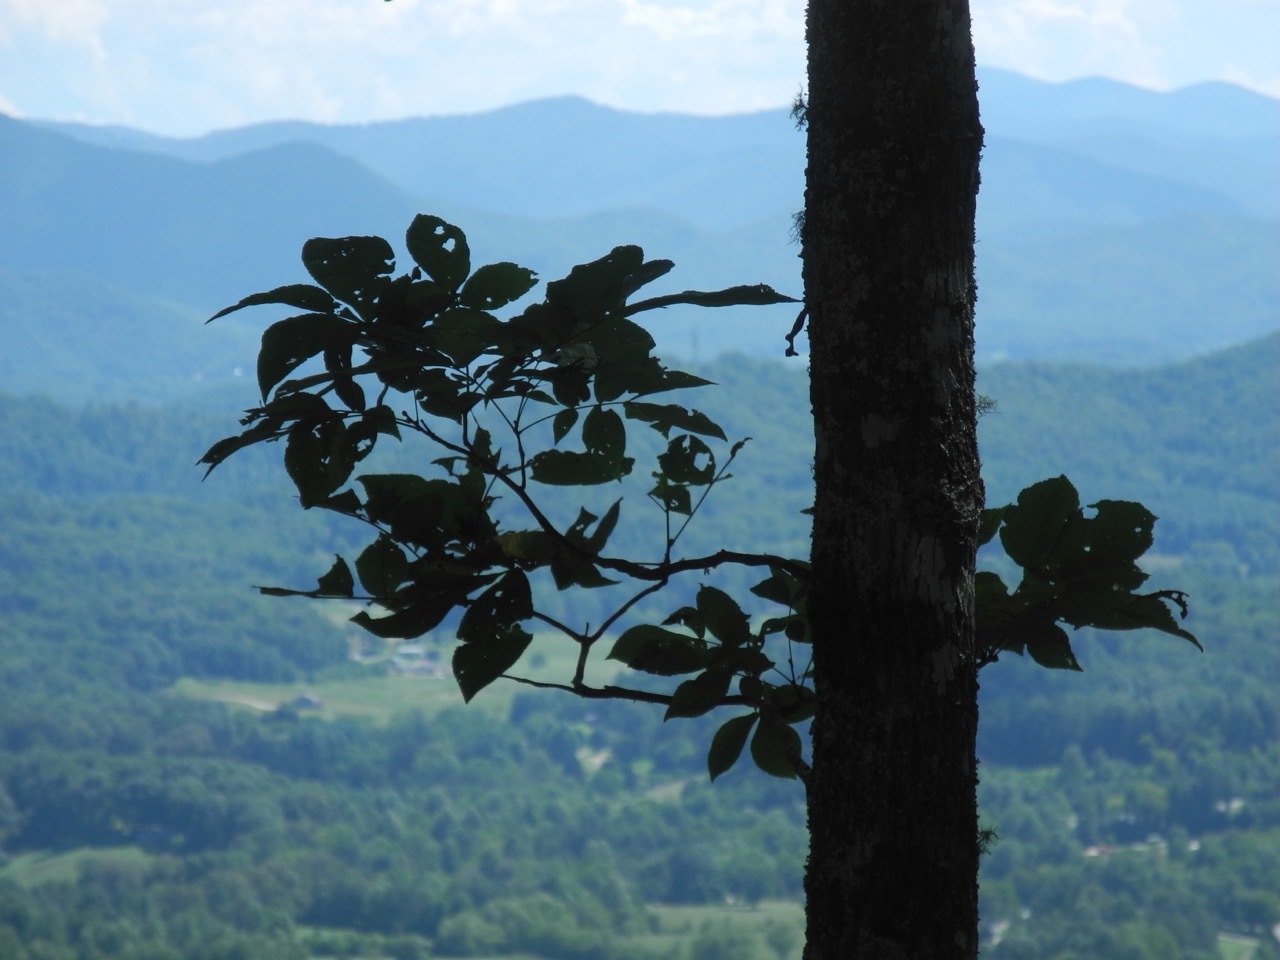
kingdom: Plantae
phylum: Tracheophyta
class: Magnoliopsida
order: Fagales
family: Juglandaceae
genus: Carya
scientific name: Carya alba
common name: Mockernut hickory
